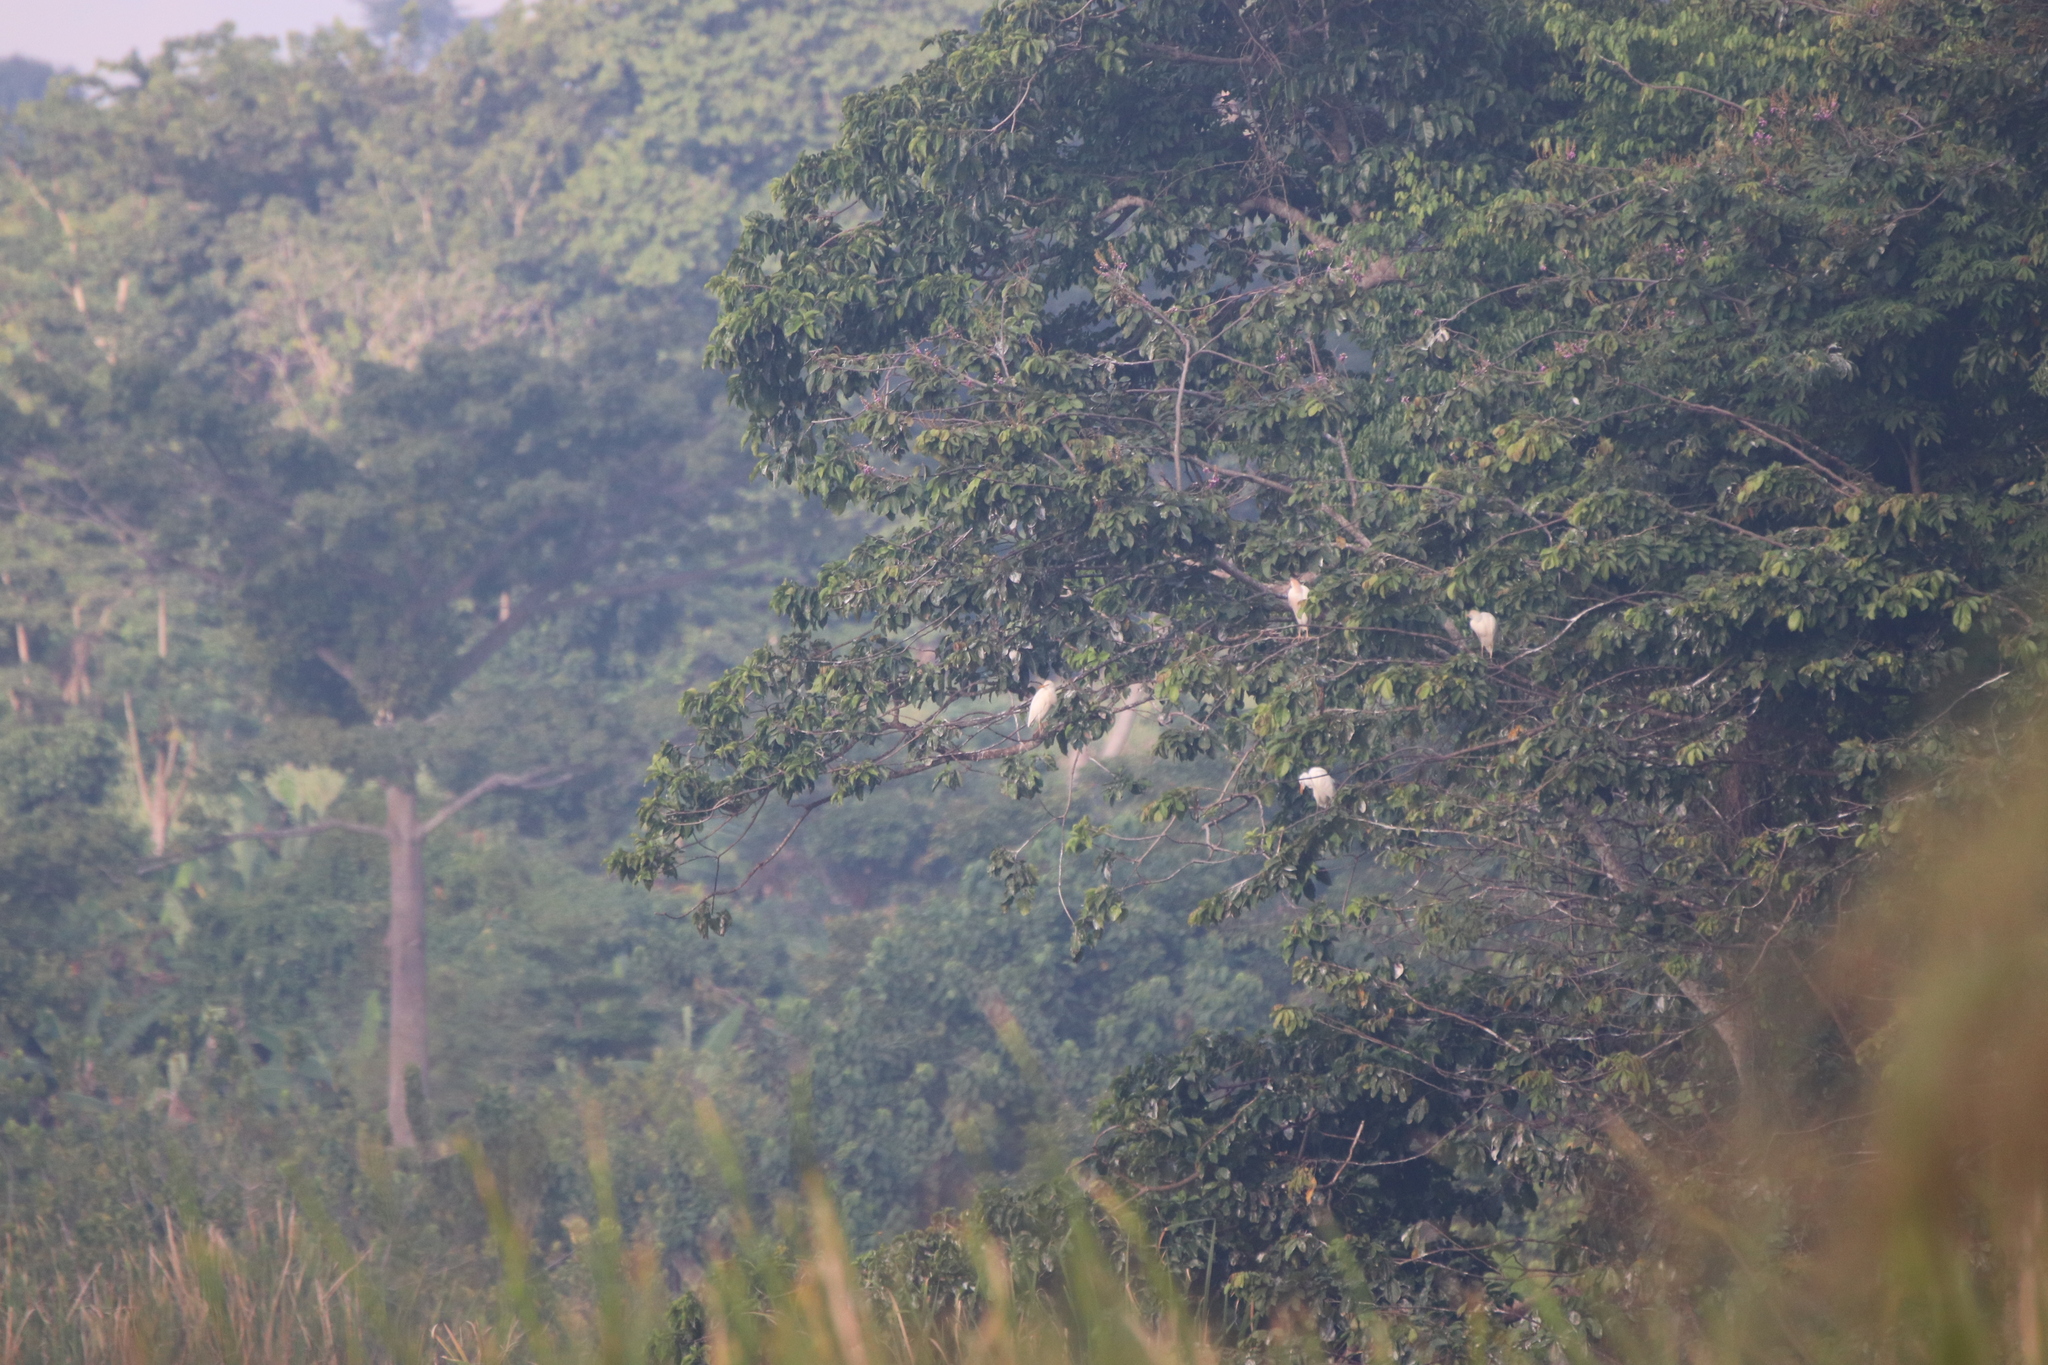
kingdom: Animalia
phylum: Chordata
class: Aves
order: Pelecaniformes
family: Ardeidae
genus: Bubulcus
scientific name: Bubulcus ibis
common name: Cattle egret
